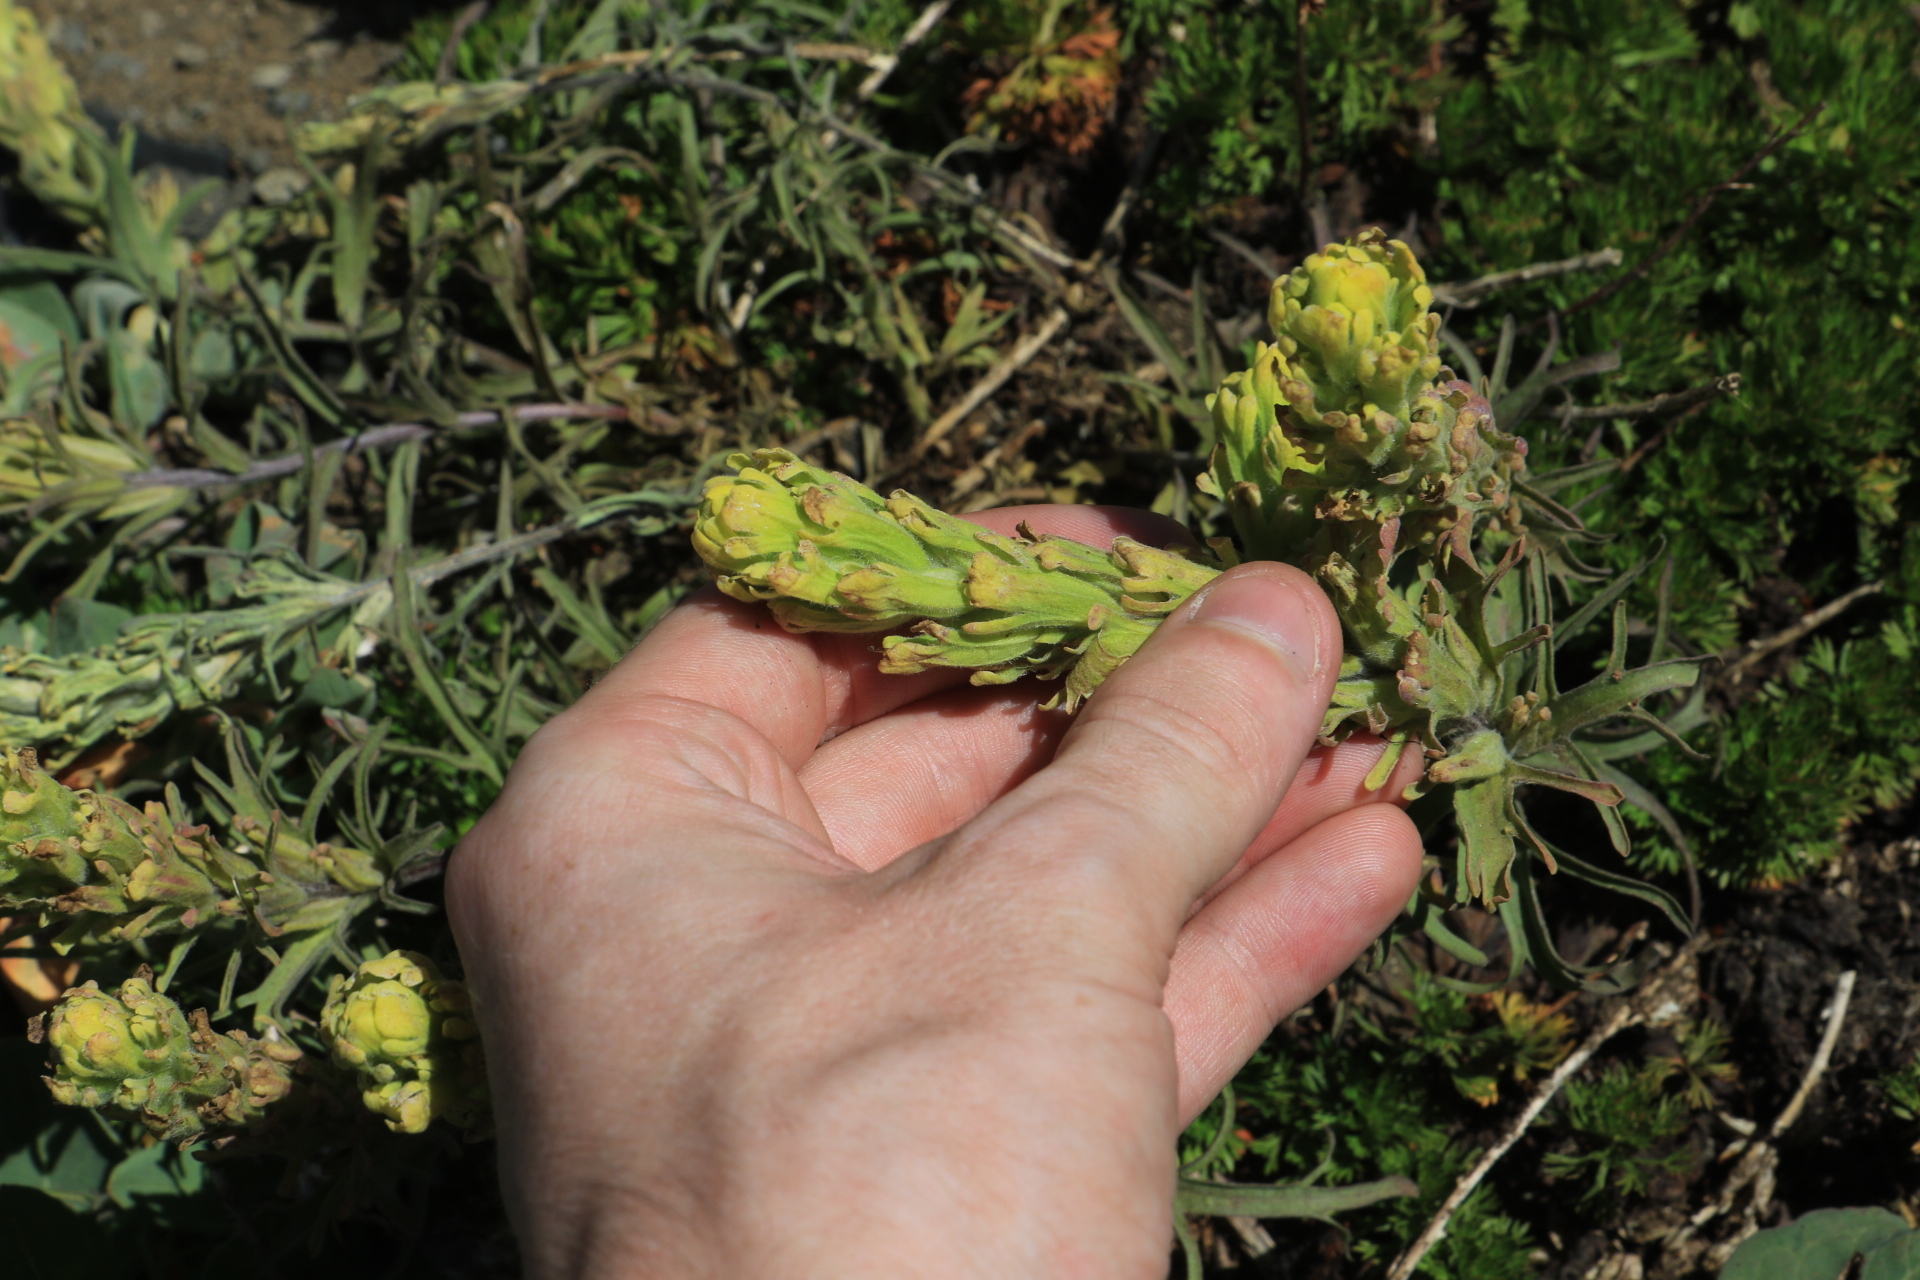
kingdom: Plantae
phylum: Tracheophyta
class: Magnoliopsida
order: Lamiales
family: Orobanchaceae
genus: Castilleja
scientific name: Castilleja arachnoidea
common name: Cobwebby indian paintbrush
